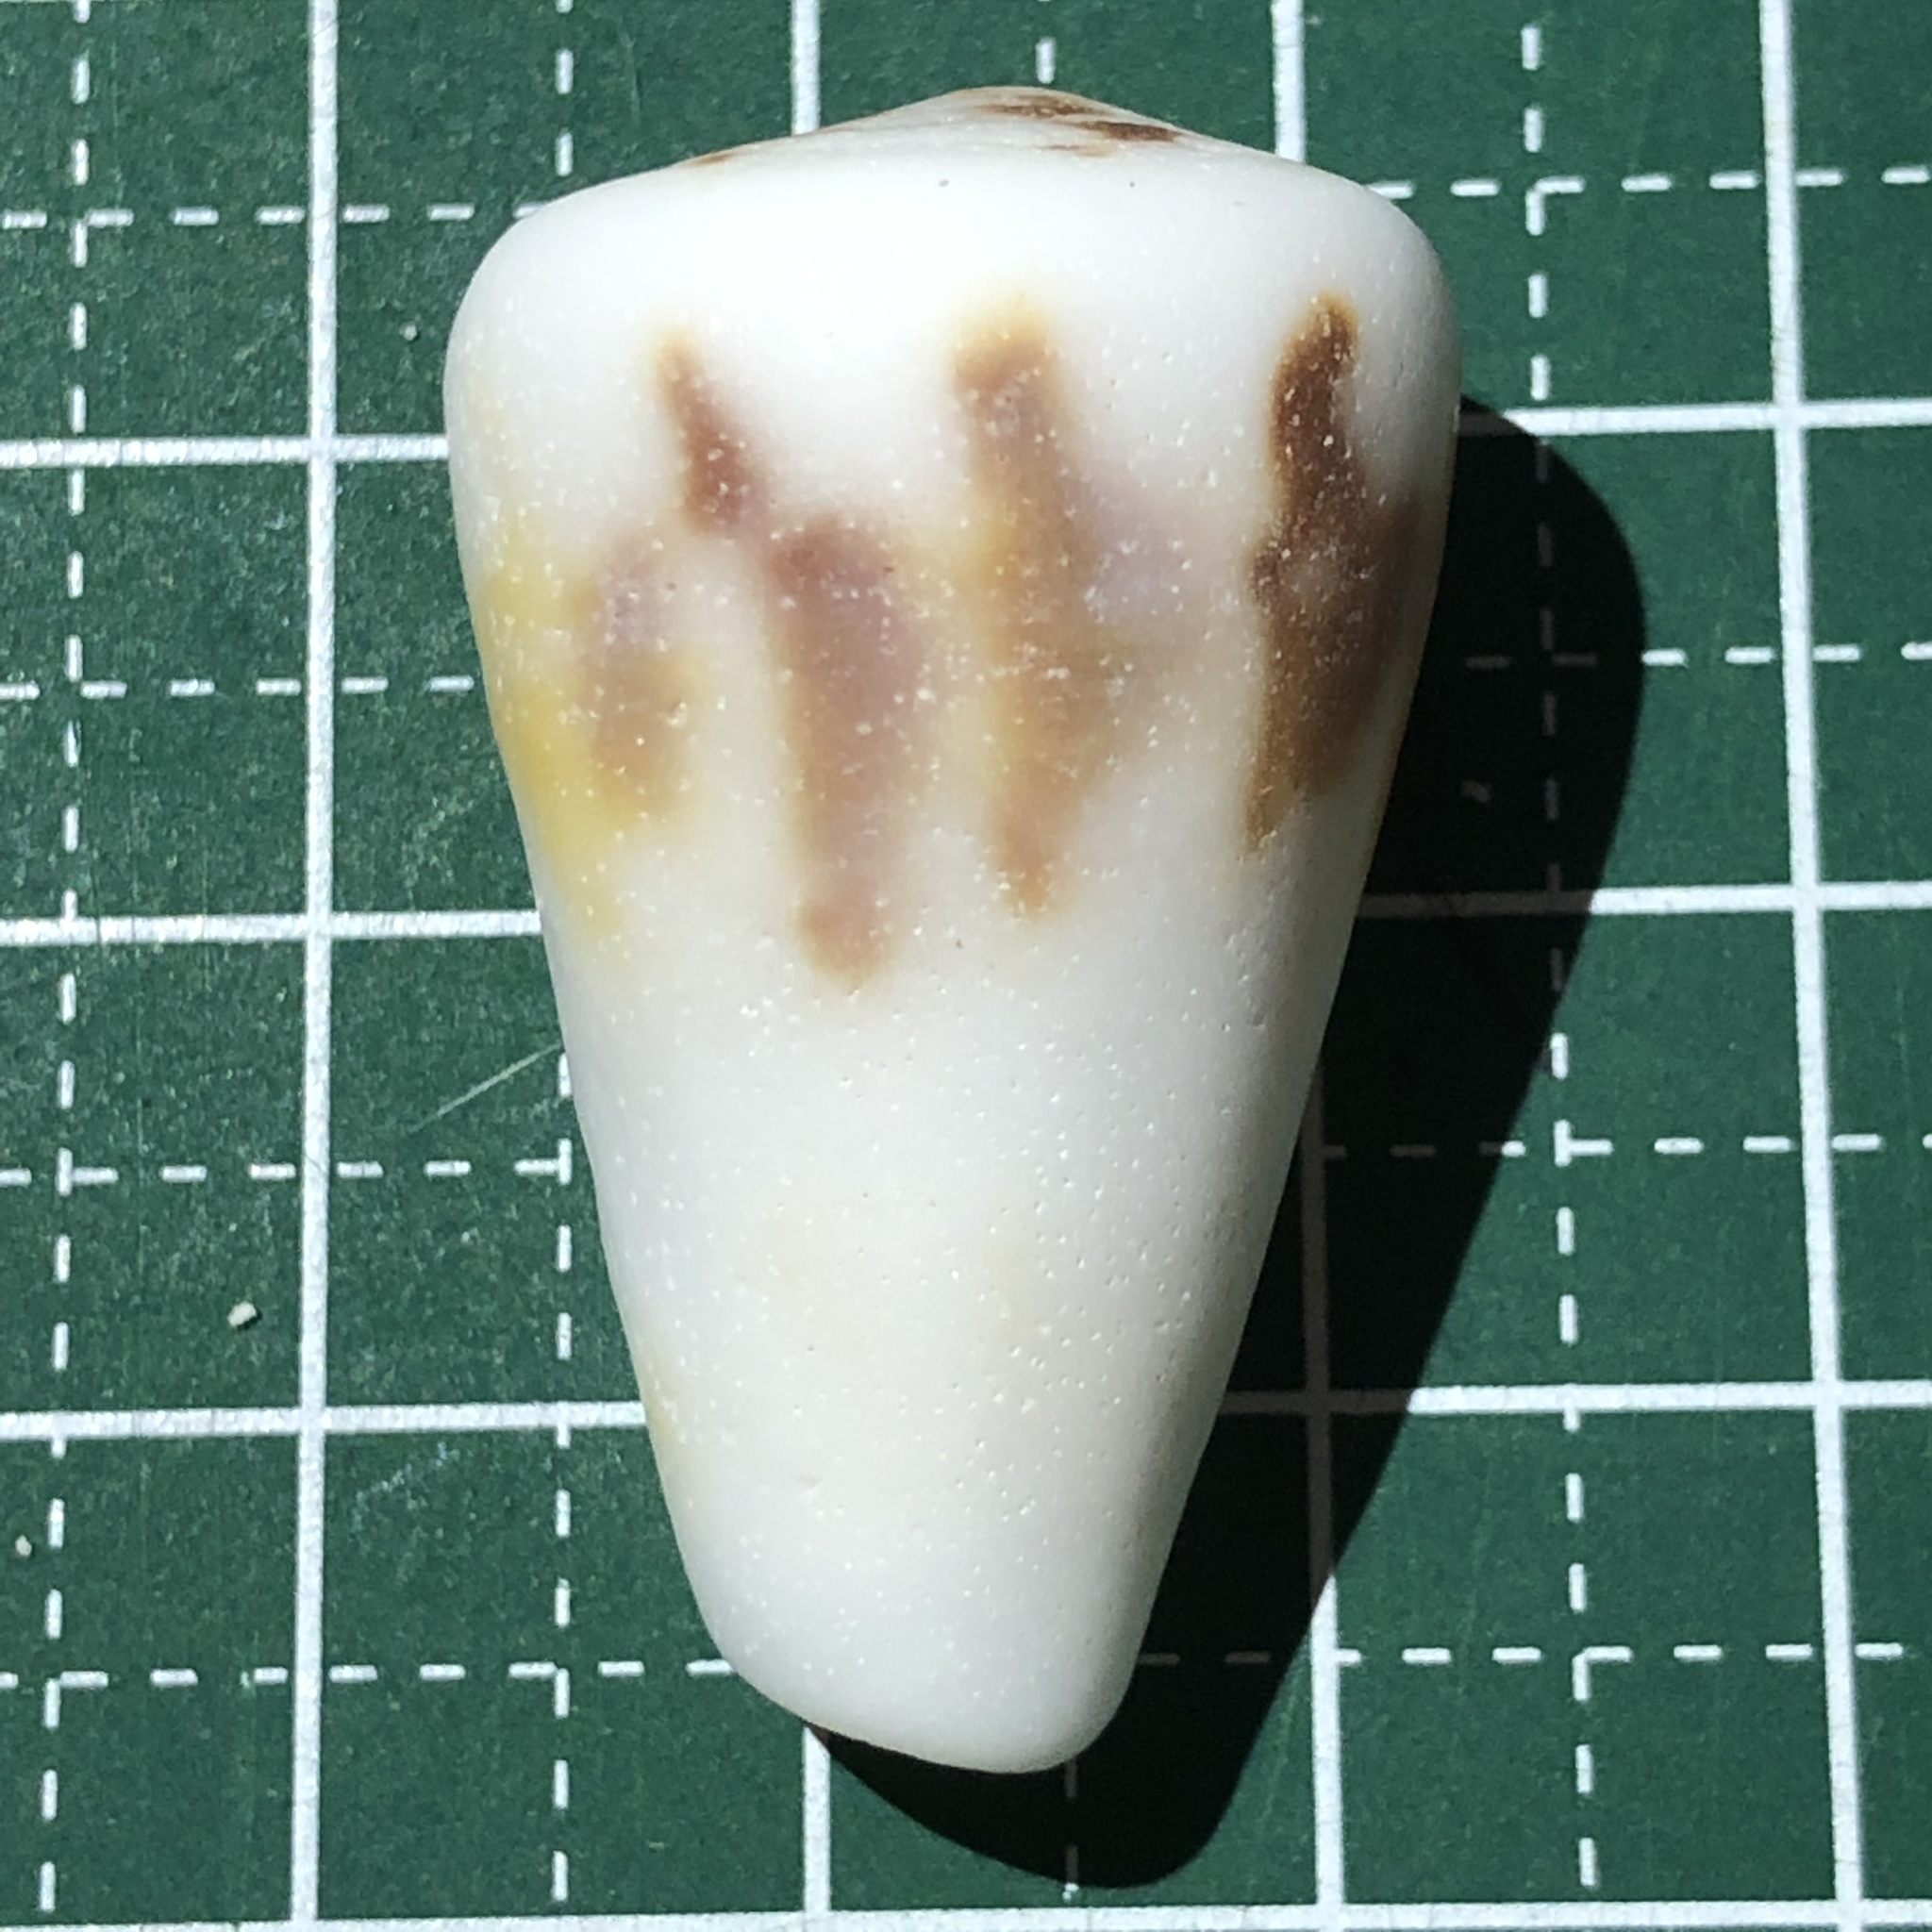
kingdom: Animalia
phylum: Mollusca
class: Gastropoda
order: Neogastropoda
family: Conidae
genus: Conus
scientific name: Conus planorbis
